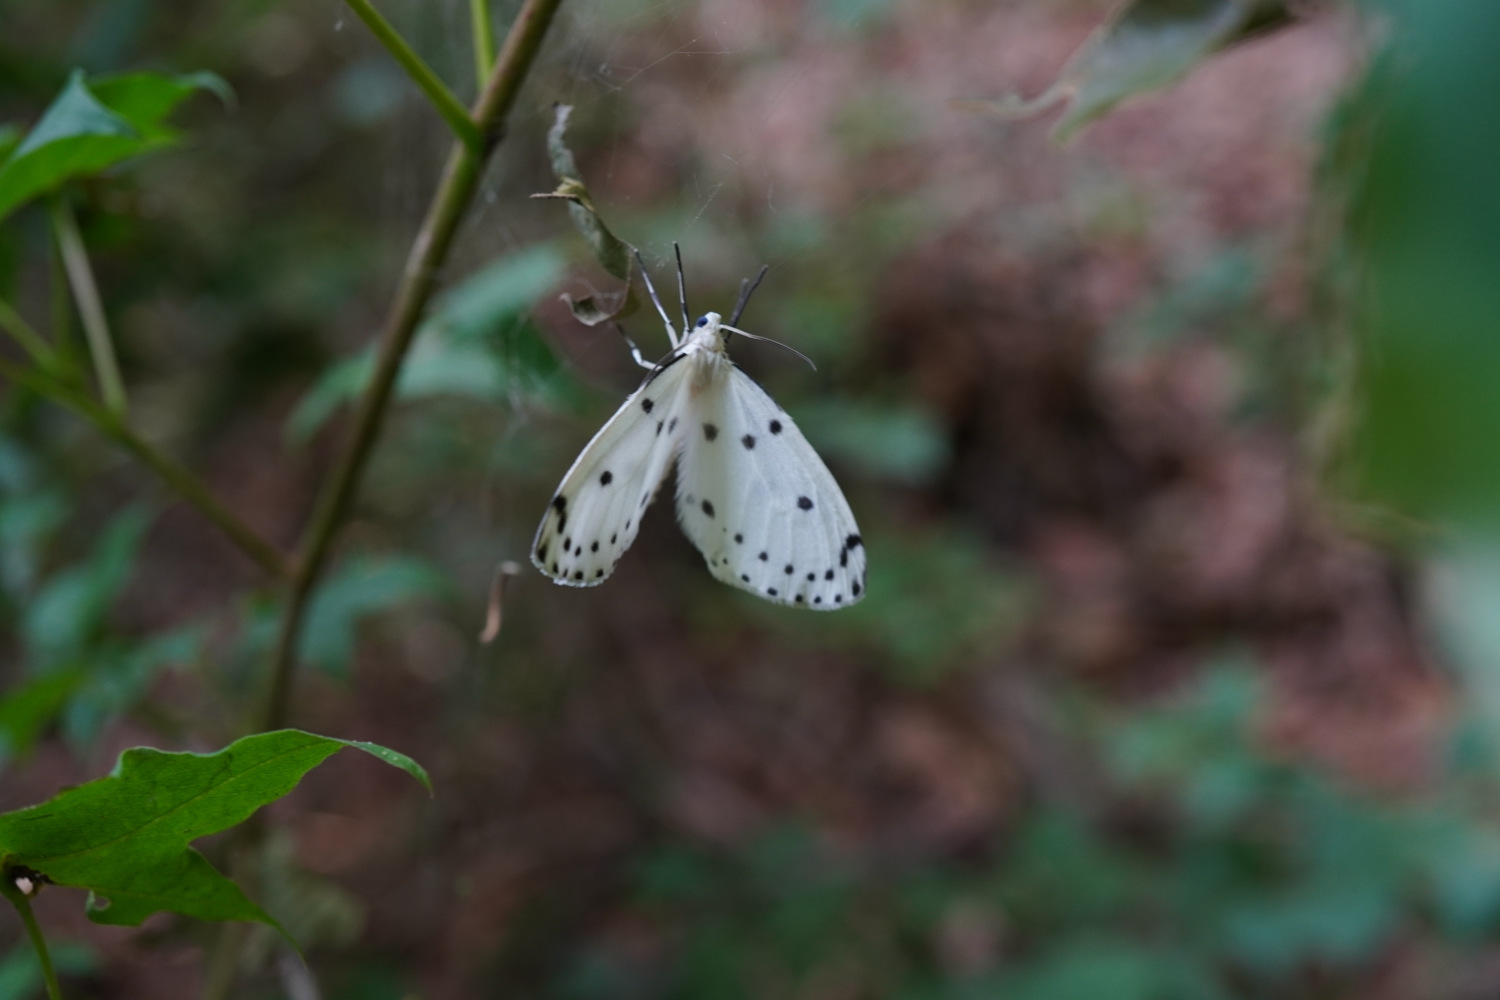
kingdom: Animalia
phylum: Arthropoda
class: Insecta
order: Lepidoptera
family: Geometridae
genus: Naxa
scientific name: Naxa seriaria
